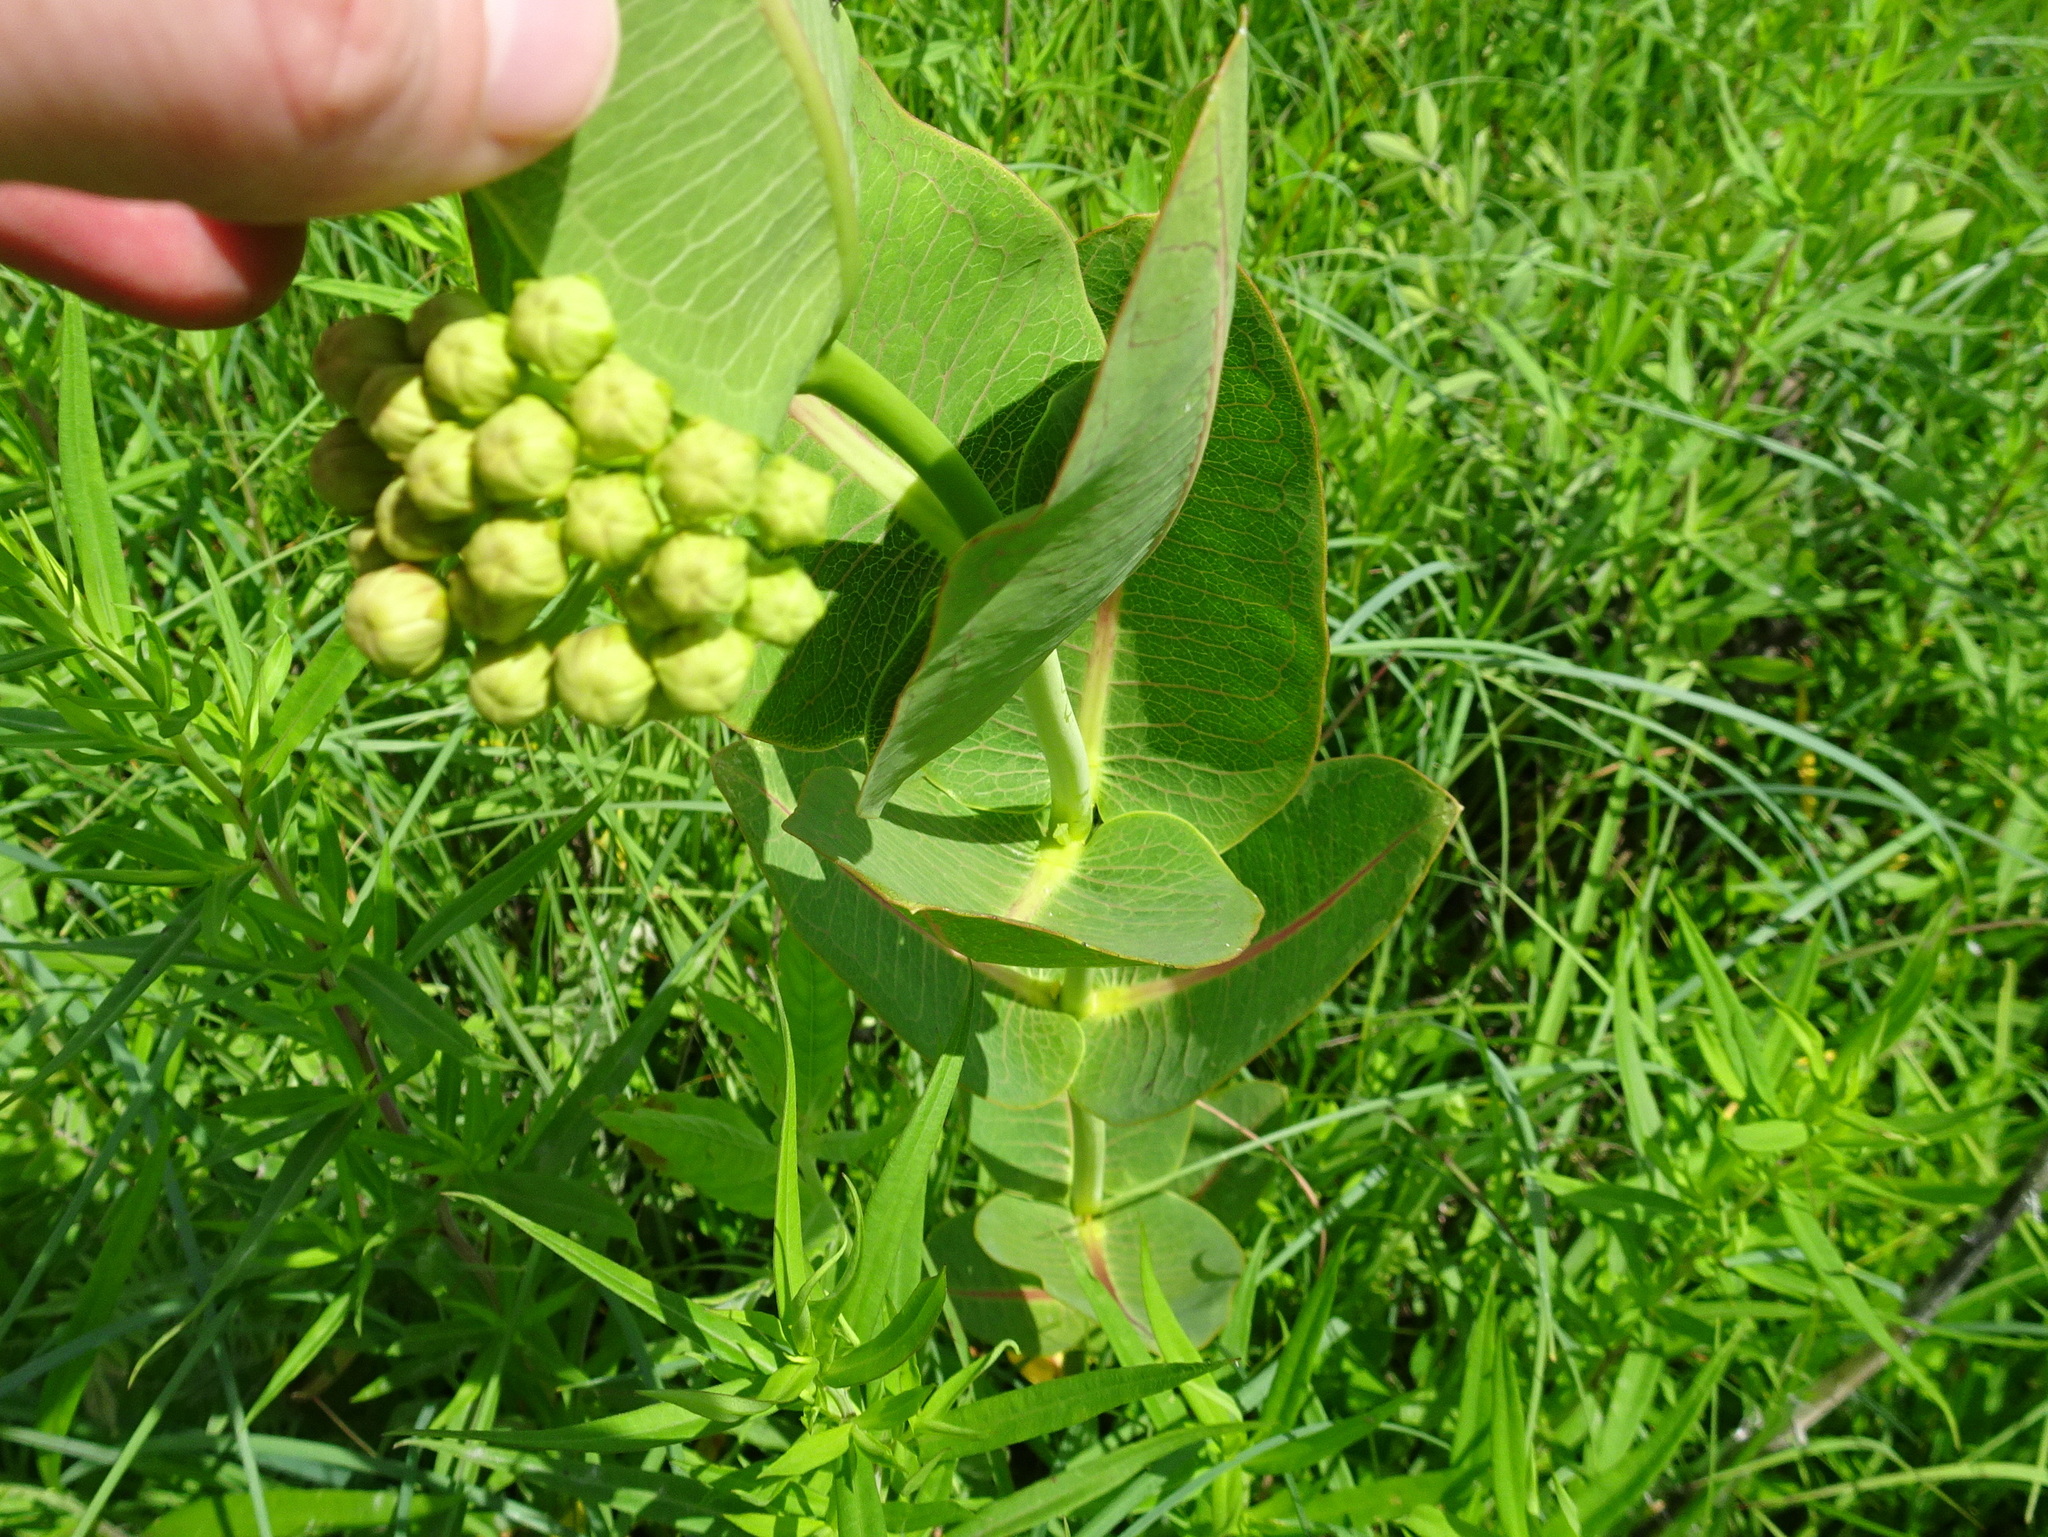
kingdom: Plantae
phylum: Tracheophyta
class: Magnoliopsida
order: Gentianales
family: Apocynaceae
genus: Asclepias
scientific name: Asclepias sullivantii
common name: Prairie milkweed
